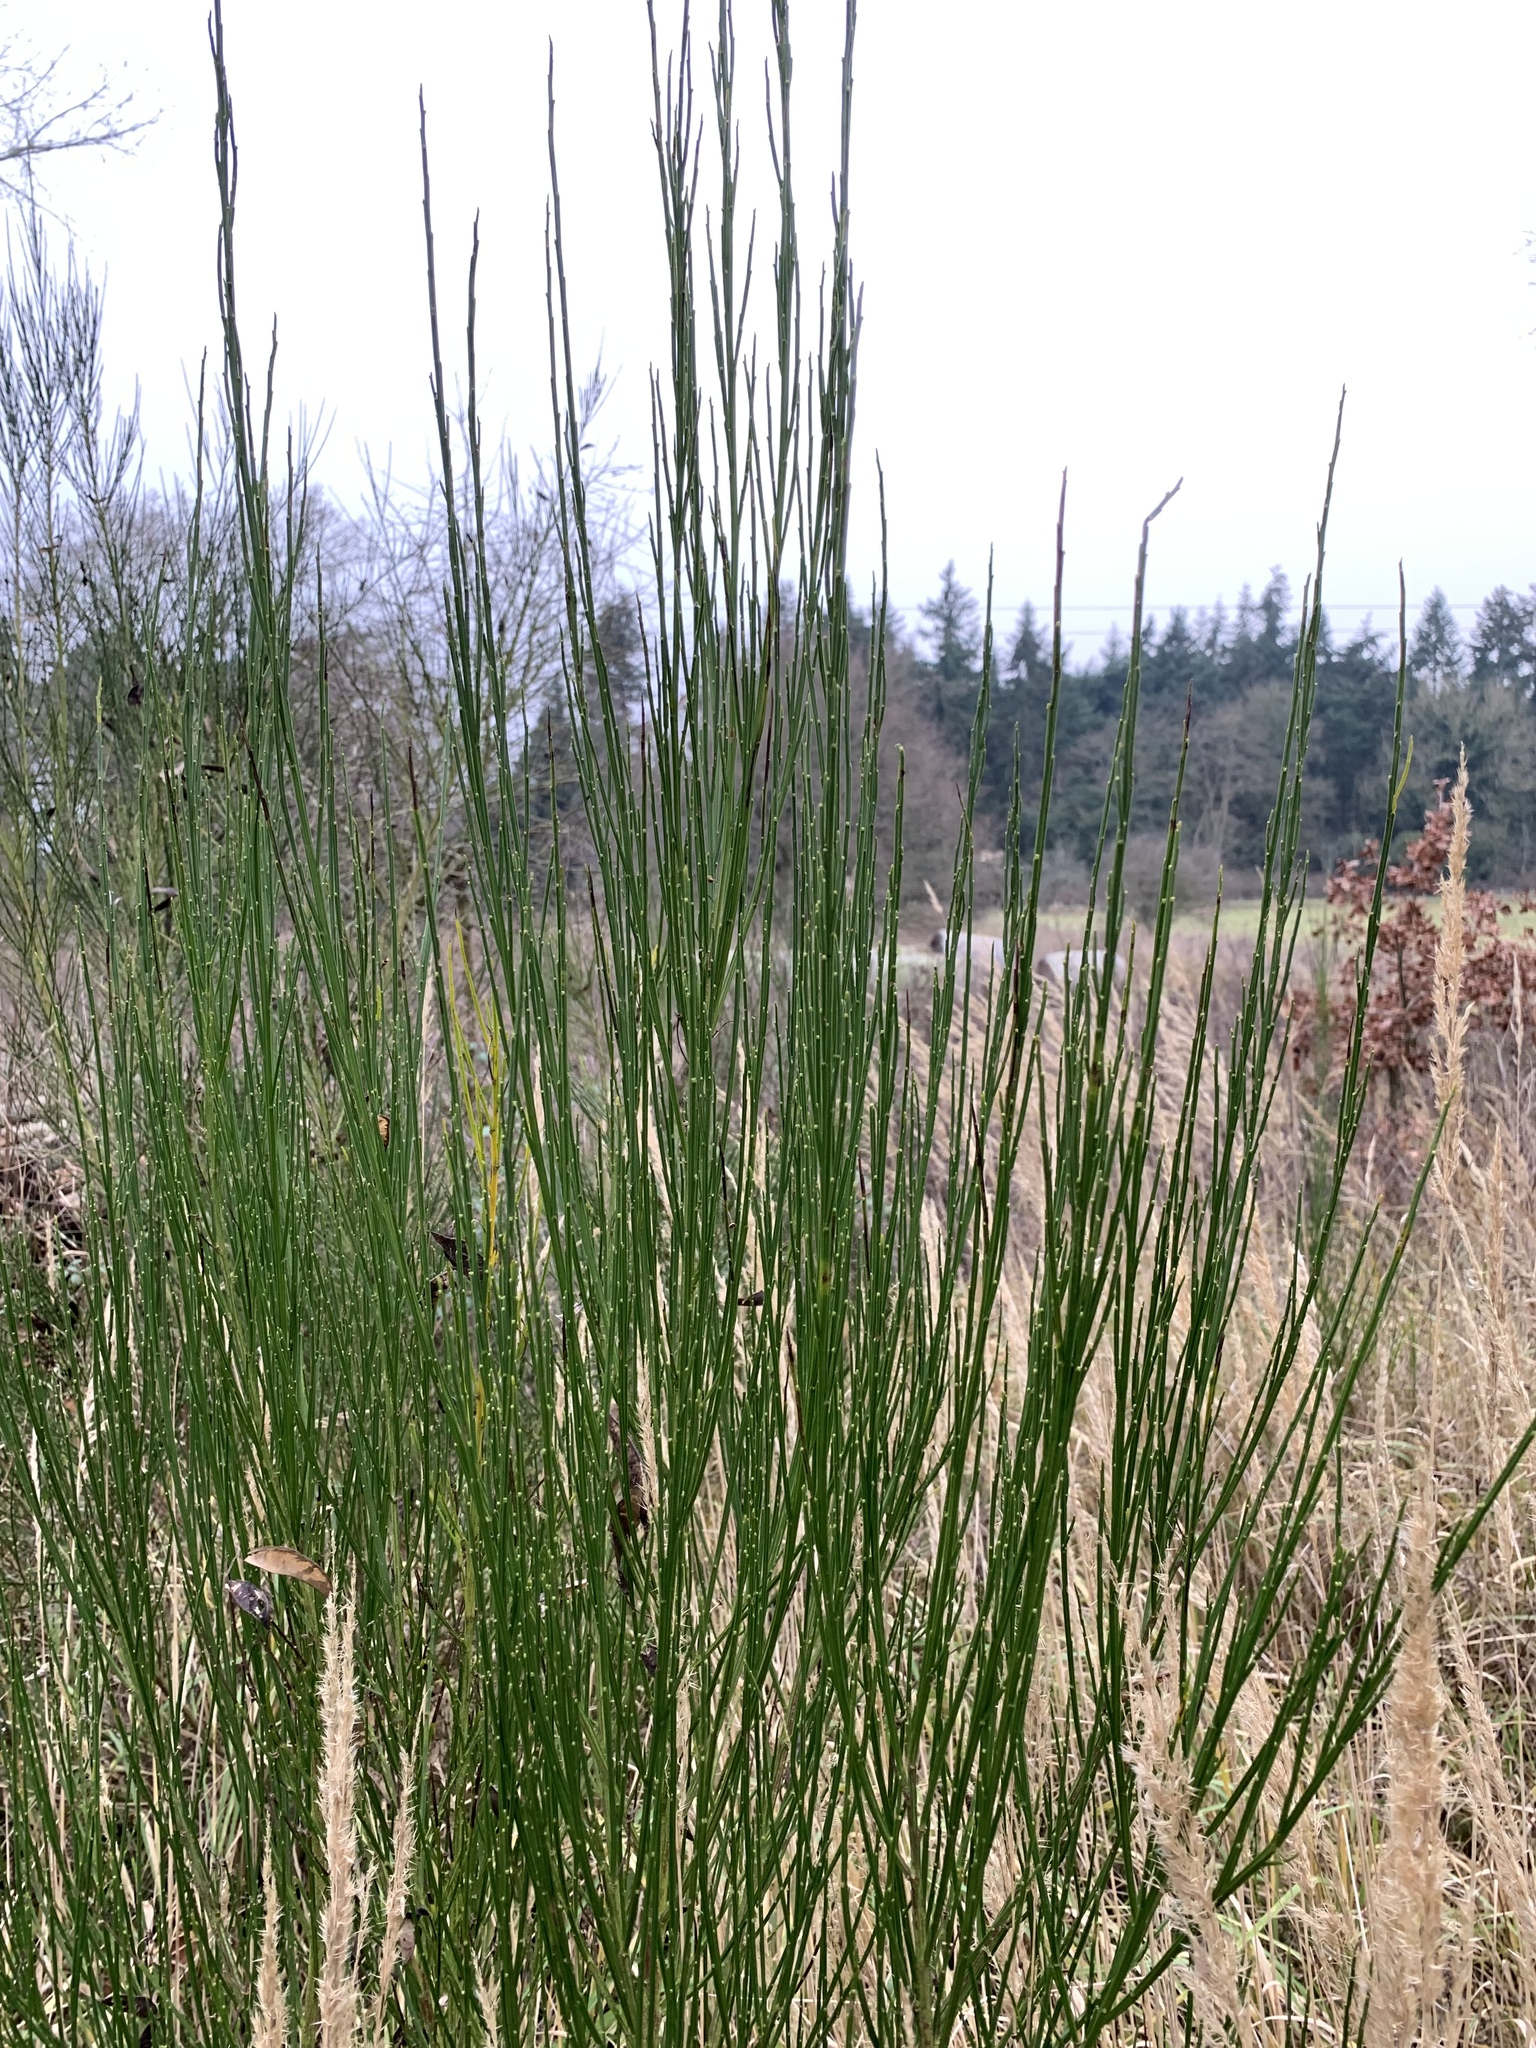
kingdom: Plantae
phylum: Tracheophyta
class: Magnoliopsida
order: Fabales
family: Fabaceae
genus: Cytisus
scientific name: Cytisus scoparius
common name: Scotch broom
